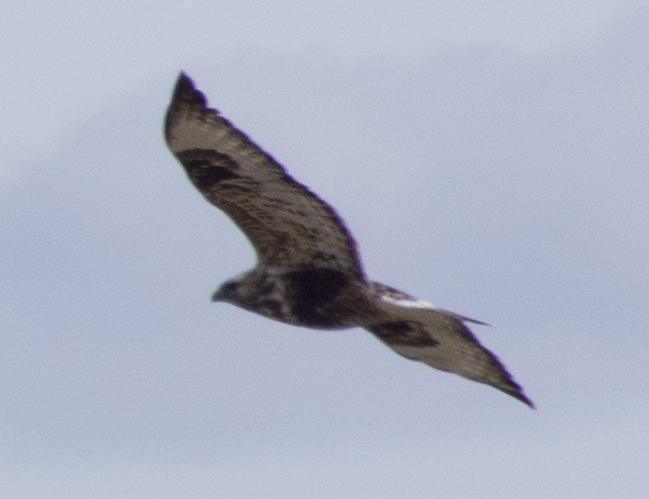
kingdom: Animalia
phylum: Chordata
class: Aves
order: Accipitriformes
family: Accipitridae
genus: Buteo
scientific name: Buteo lagopus
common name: Rough-legged buzzard
